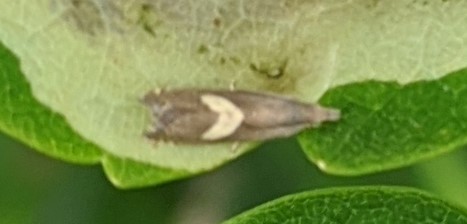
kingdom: Animalia
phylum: Arthropoda
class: Insecta
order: Lepidoptera
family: Tortricidae
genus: Grapholita
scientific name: Grapholita interstinctana
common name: Clover head caterpillar moth
